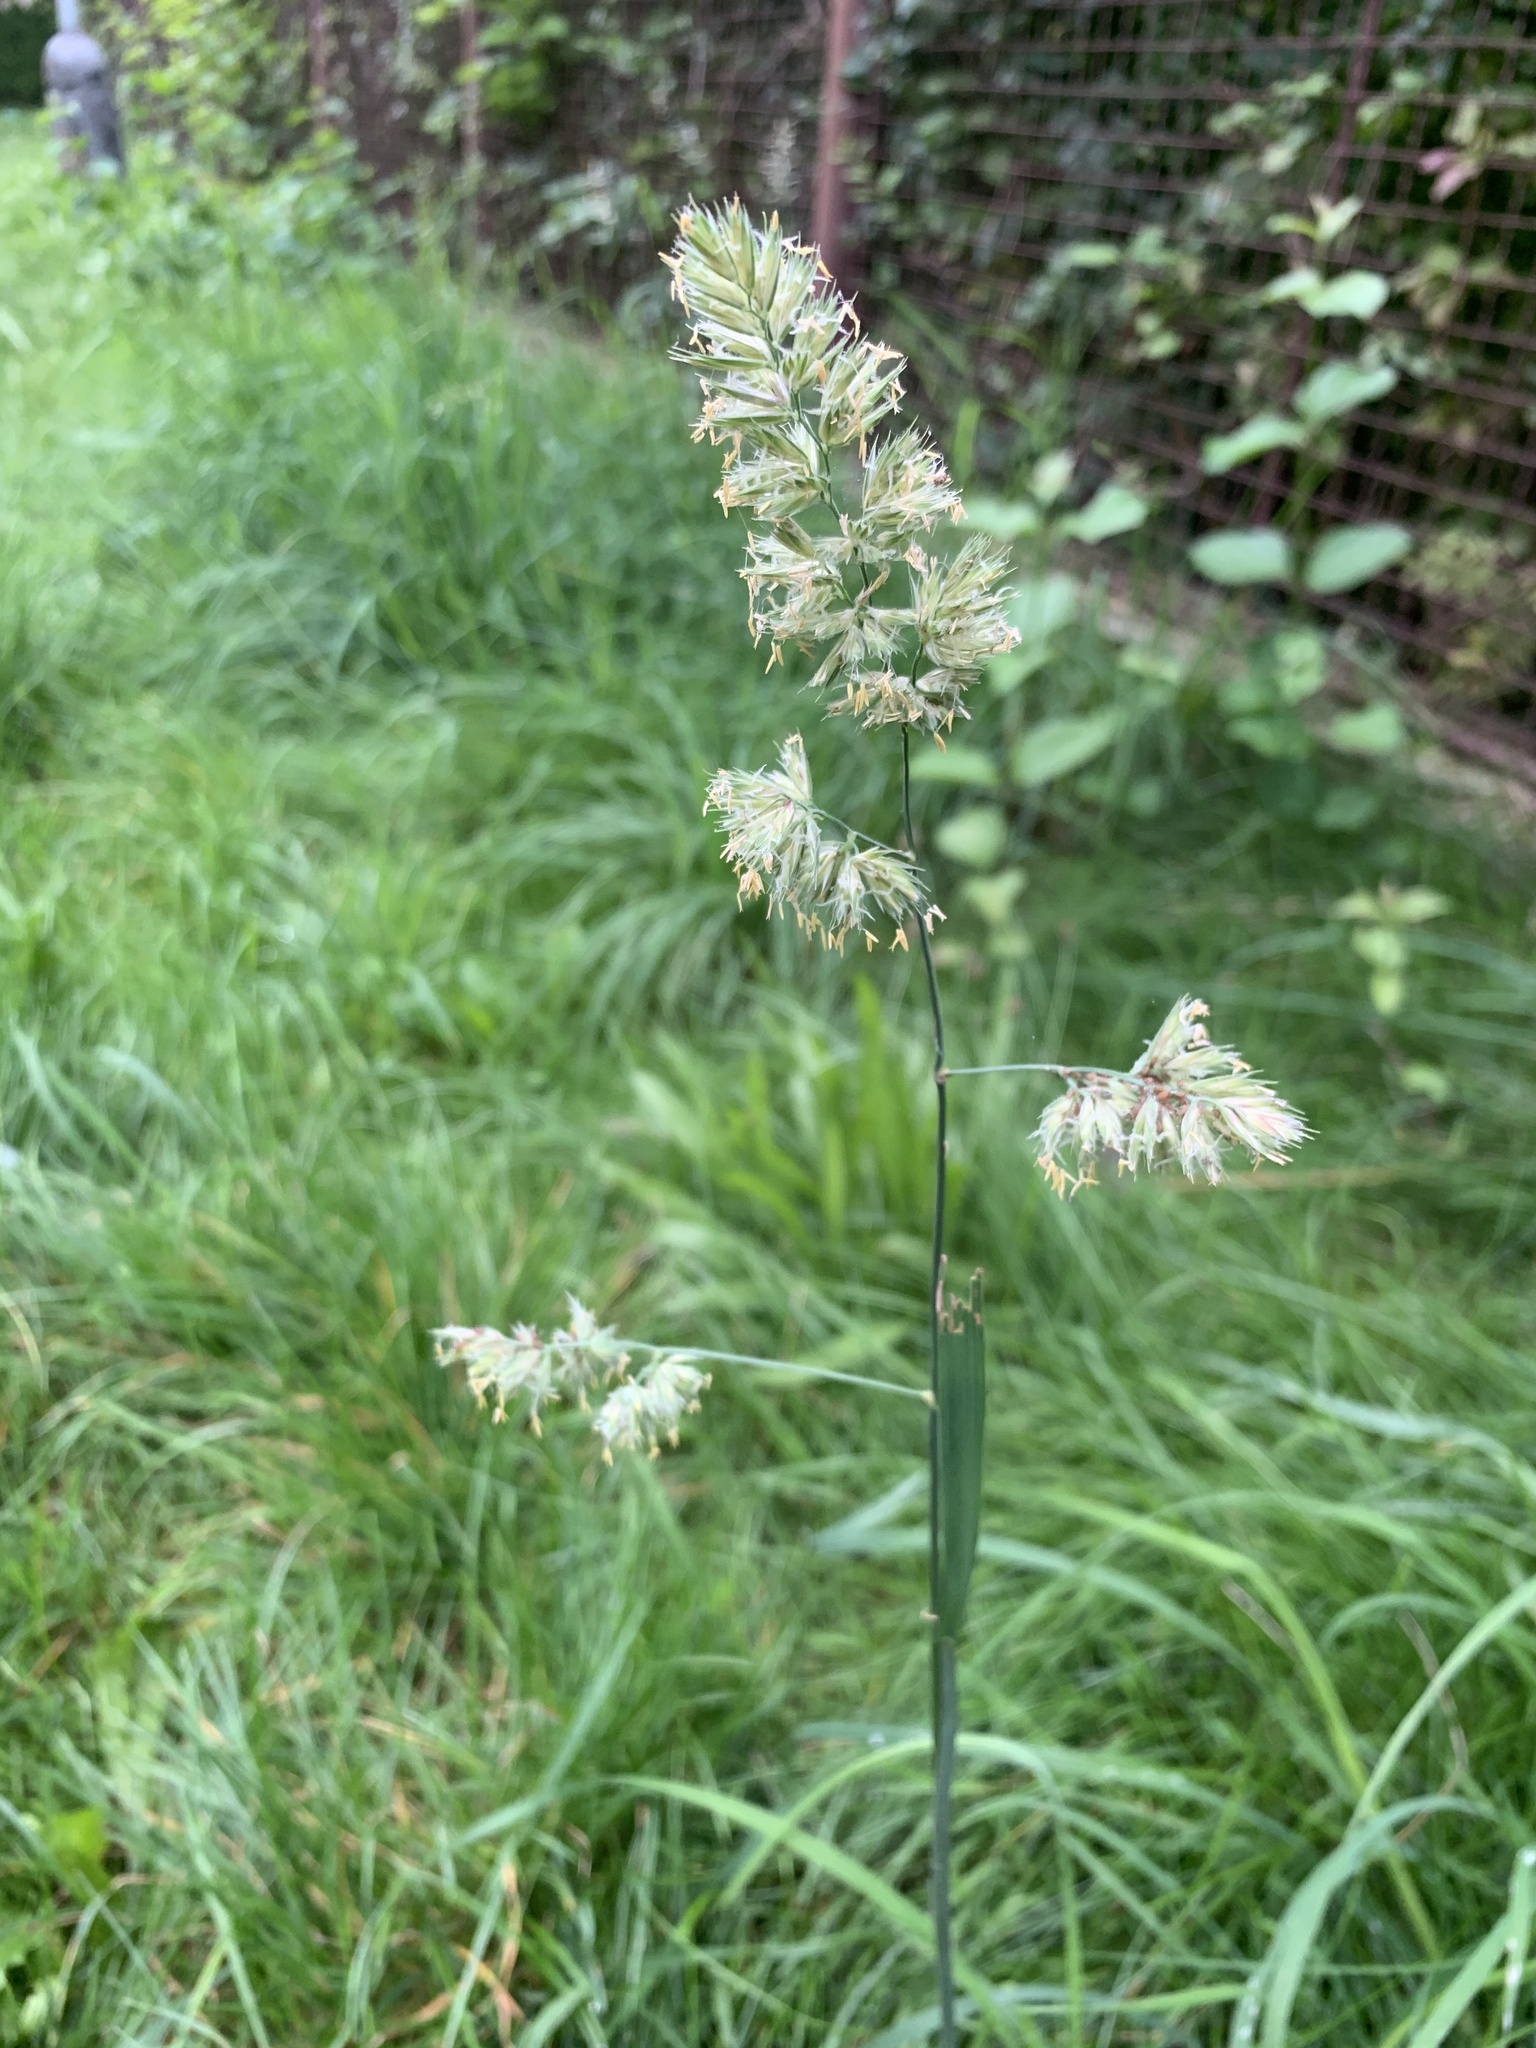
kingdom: Plantae
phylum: Tracheophyta
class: Liliopsida
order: Poales
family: Poaceae
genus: Dactylis
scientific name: Dactylis glomerata
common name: Orchardgrass
